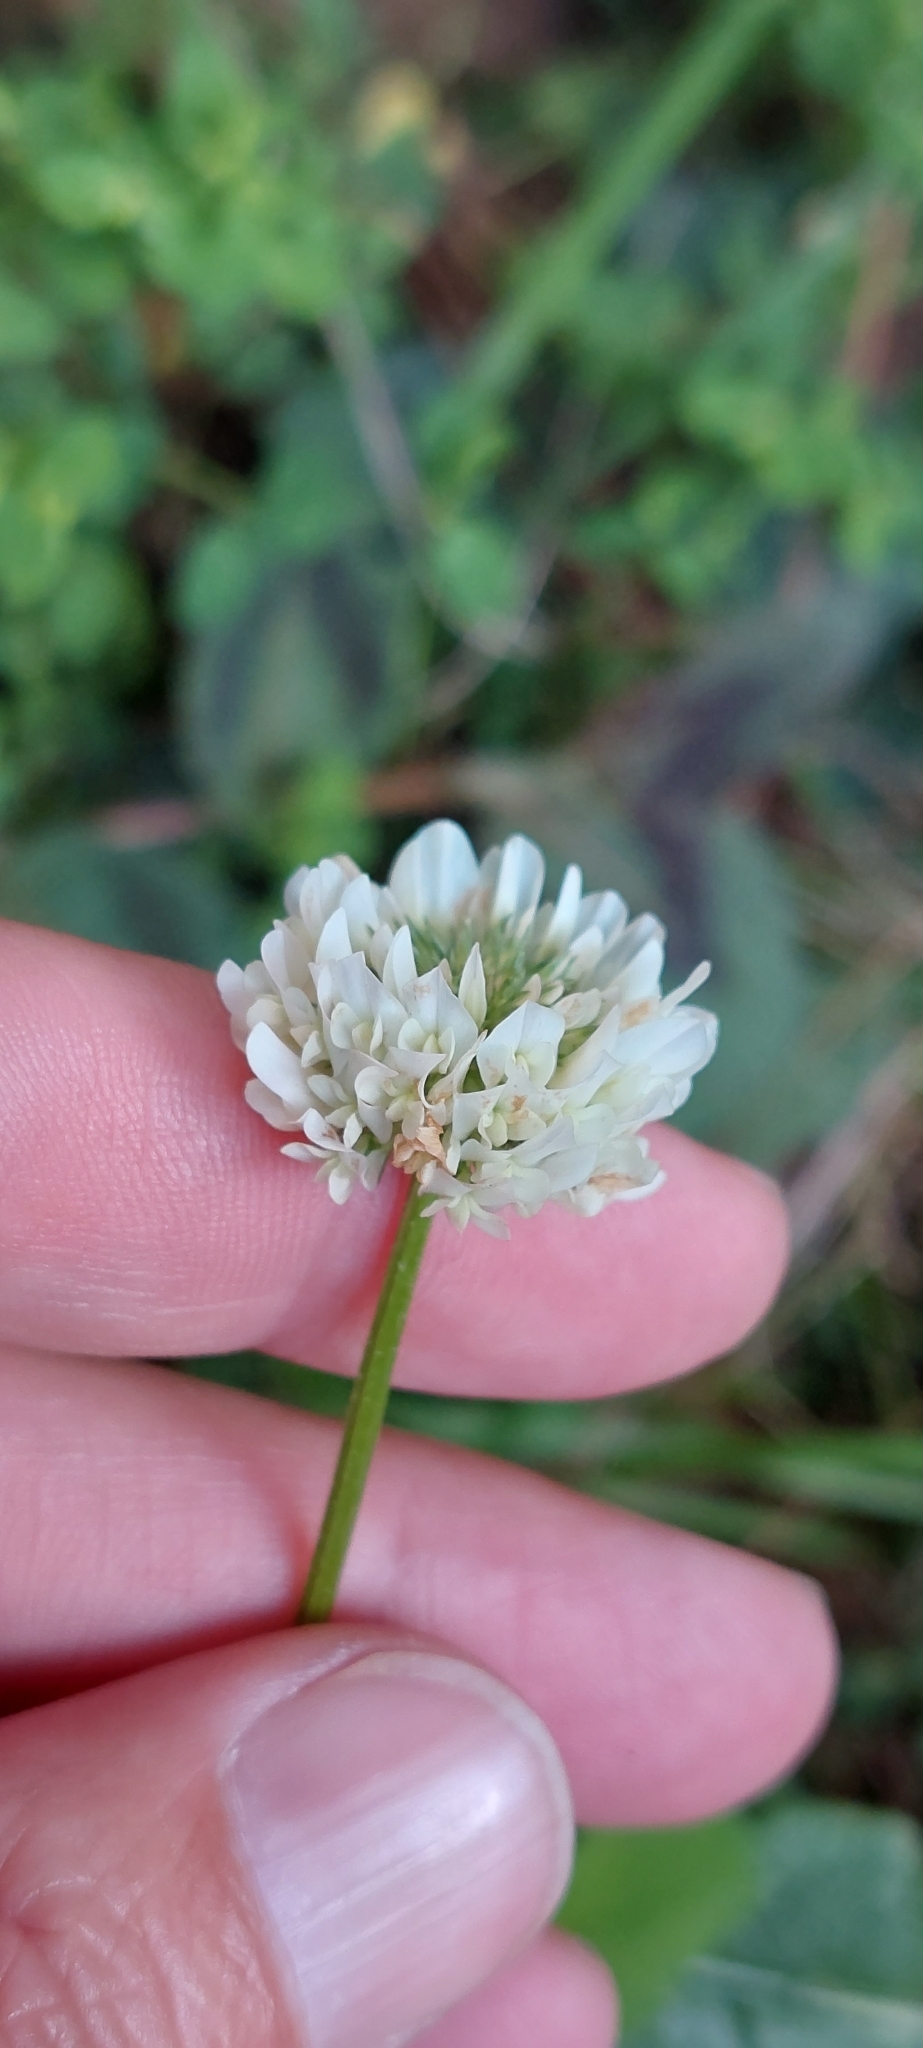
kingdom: Plantae
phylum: Tracheophyta
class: Magnoliopsida
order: Fabales
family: Fabaceae
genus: Trifolium
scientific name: Trifolium repens
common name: White clover
